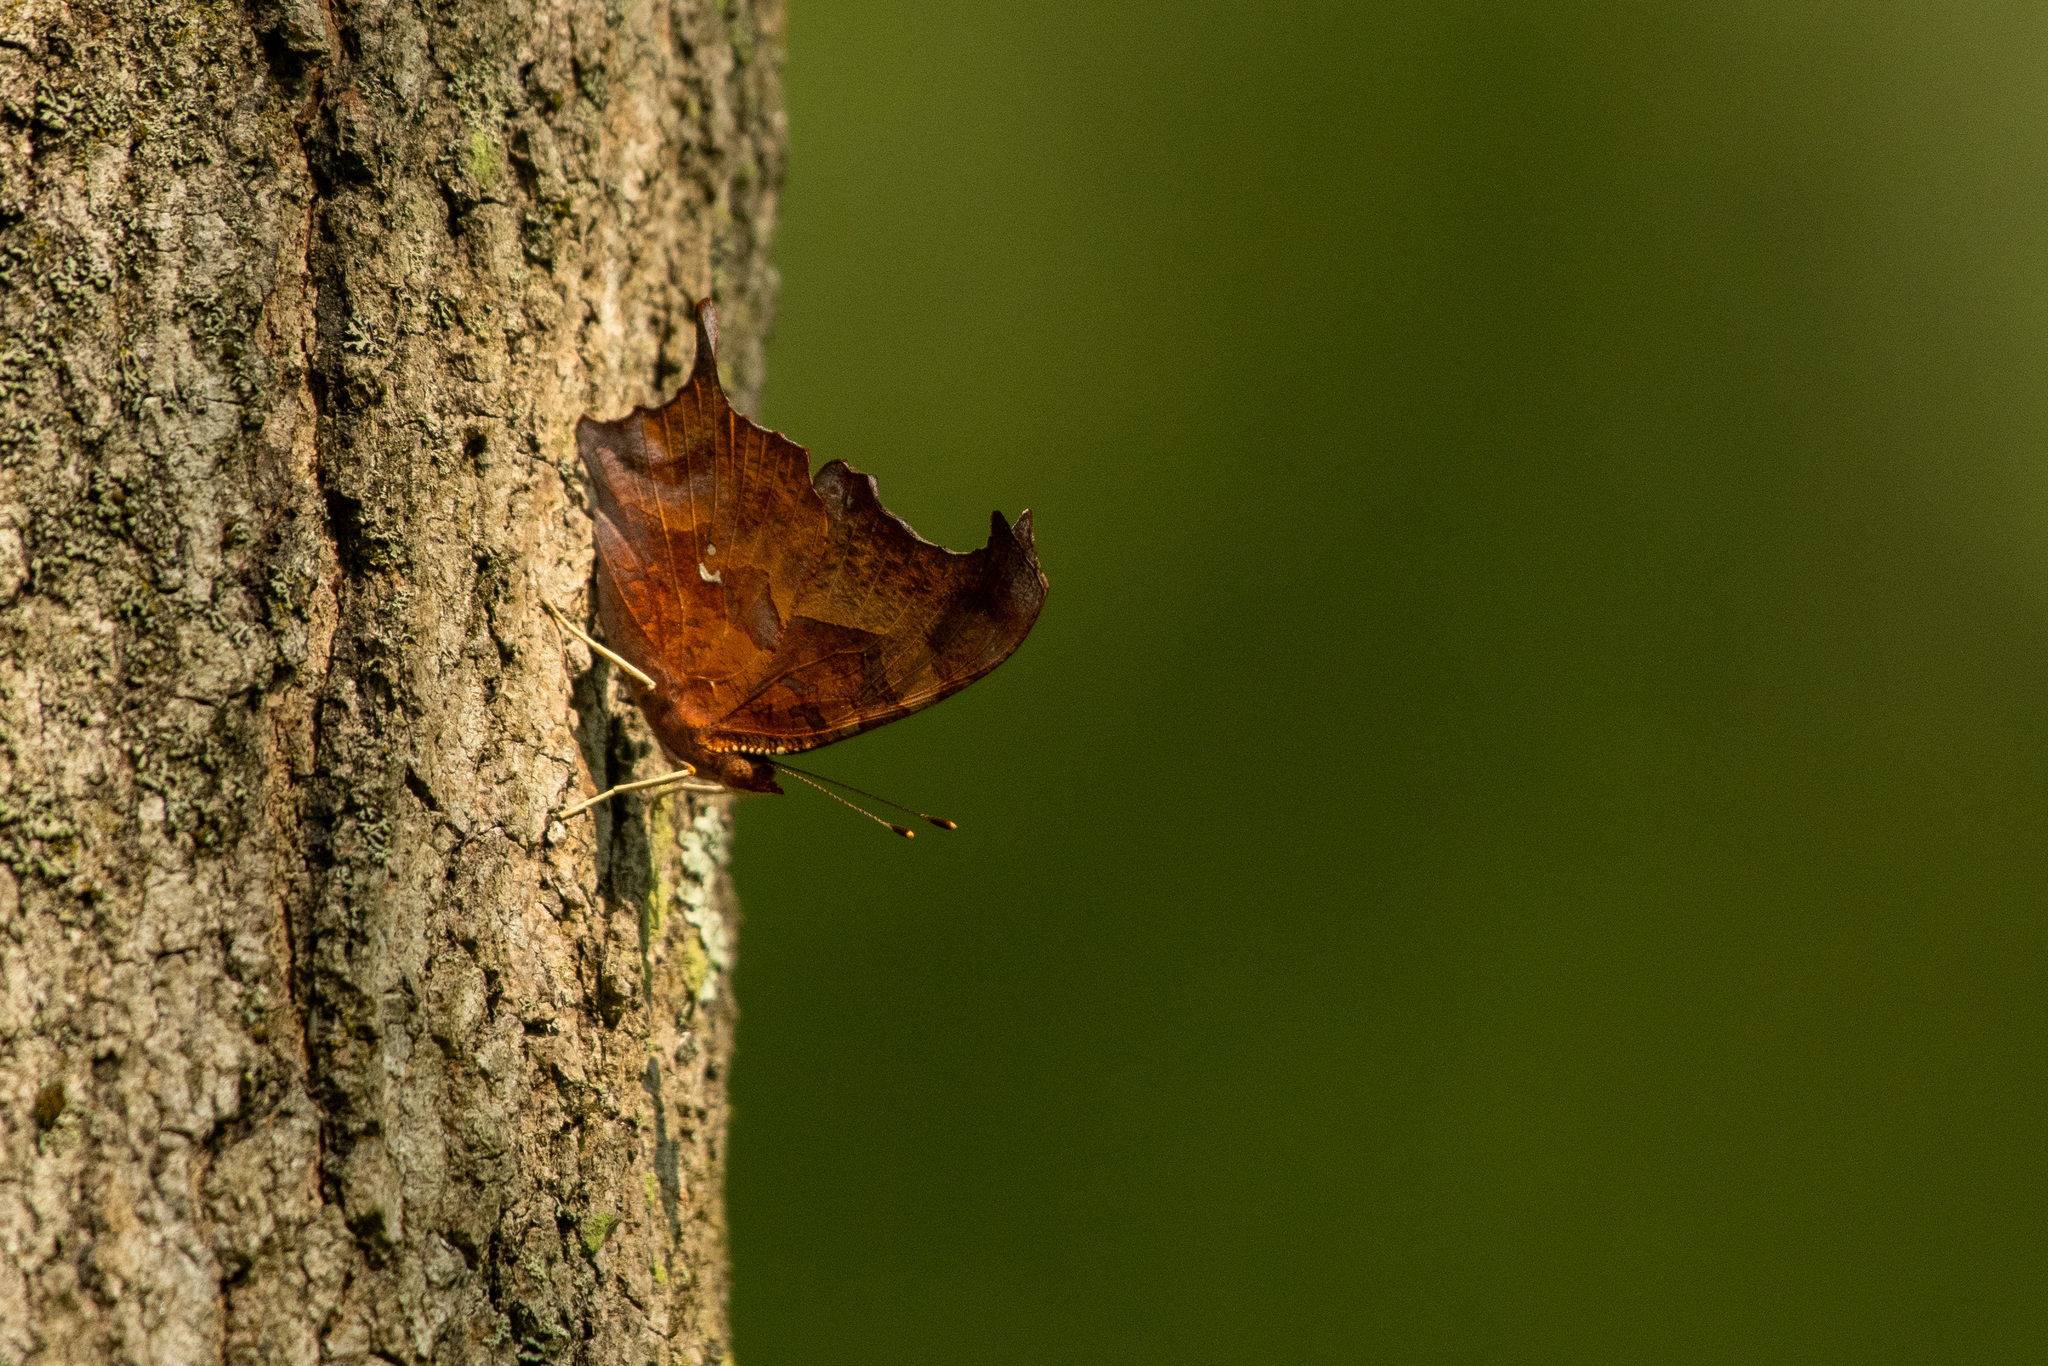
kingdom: Animalia
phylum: Arthropoda
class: Insecta
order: Lepidoptera
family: Nymphalidae
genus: Polygonia
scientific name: Polygonia interrogationis
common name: Question mark
